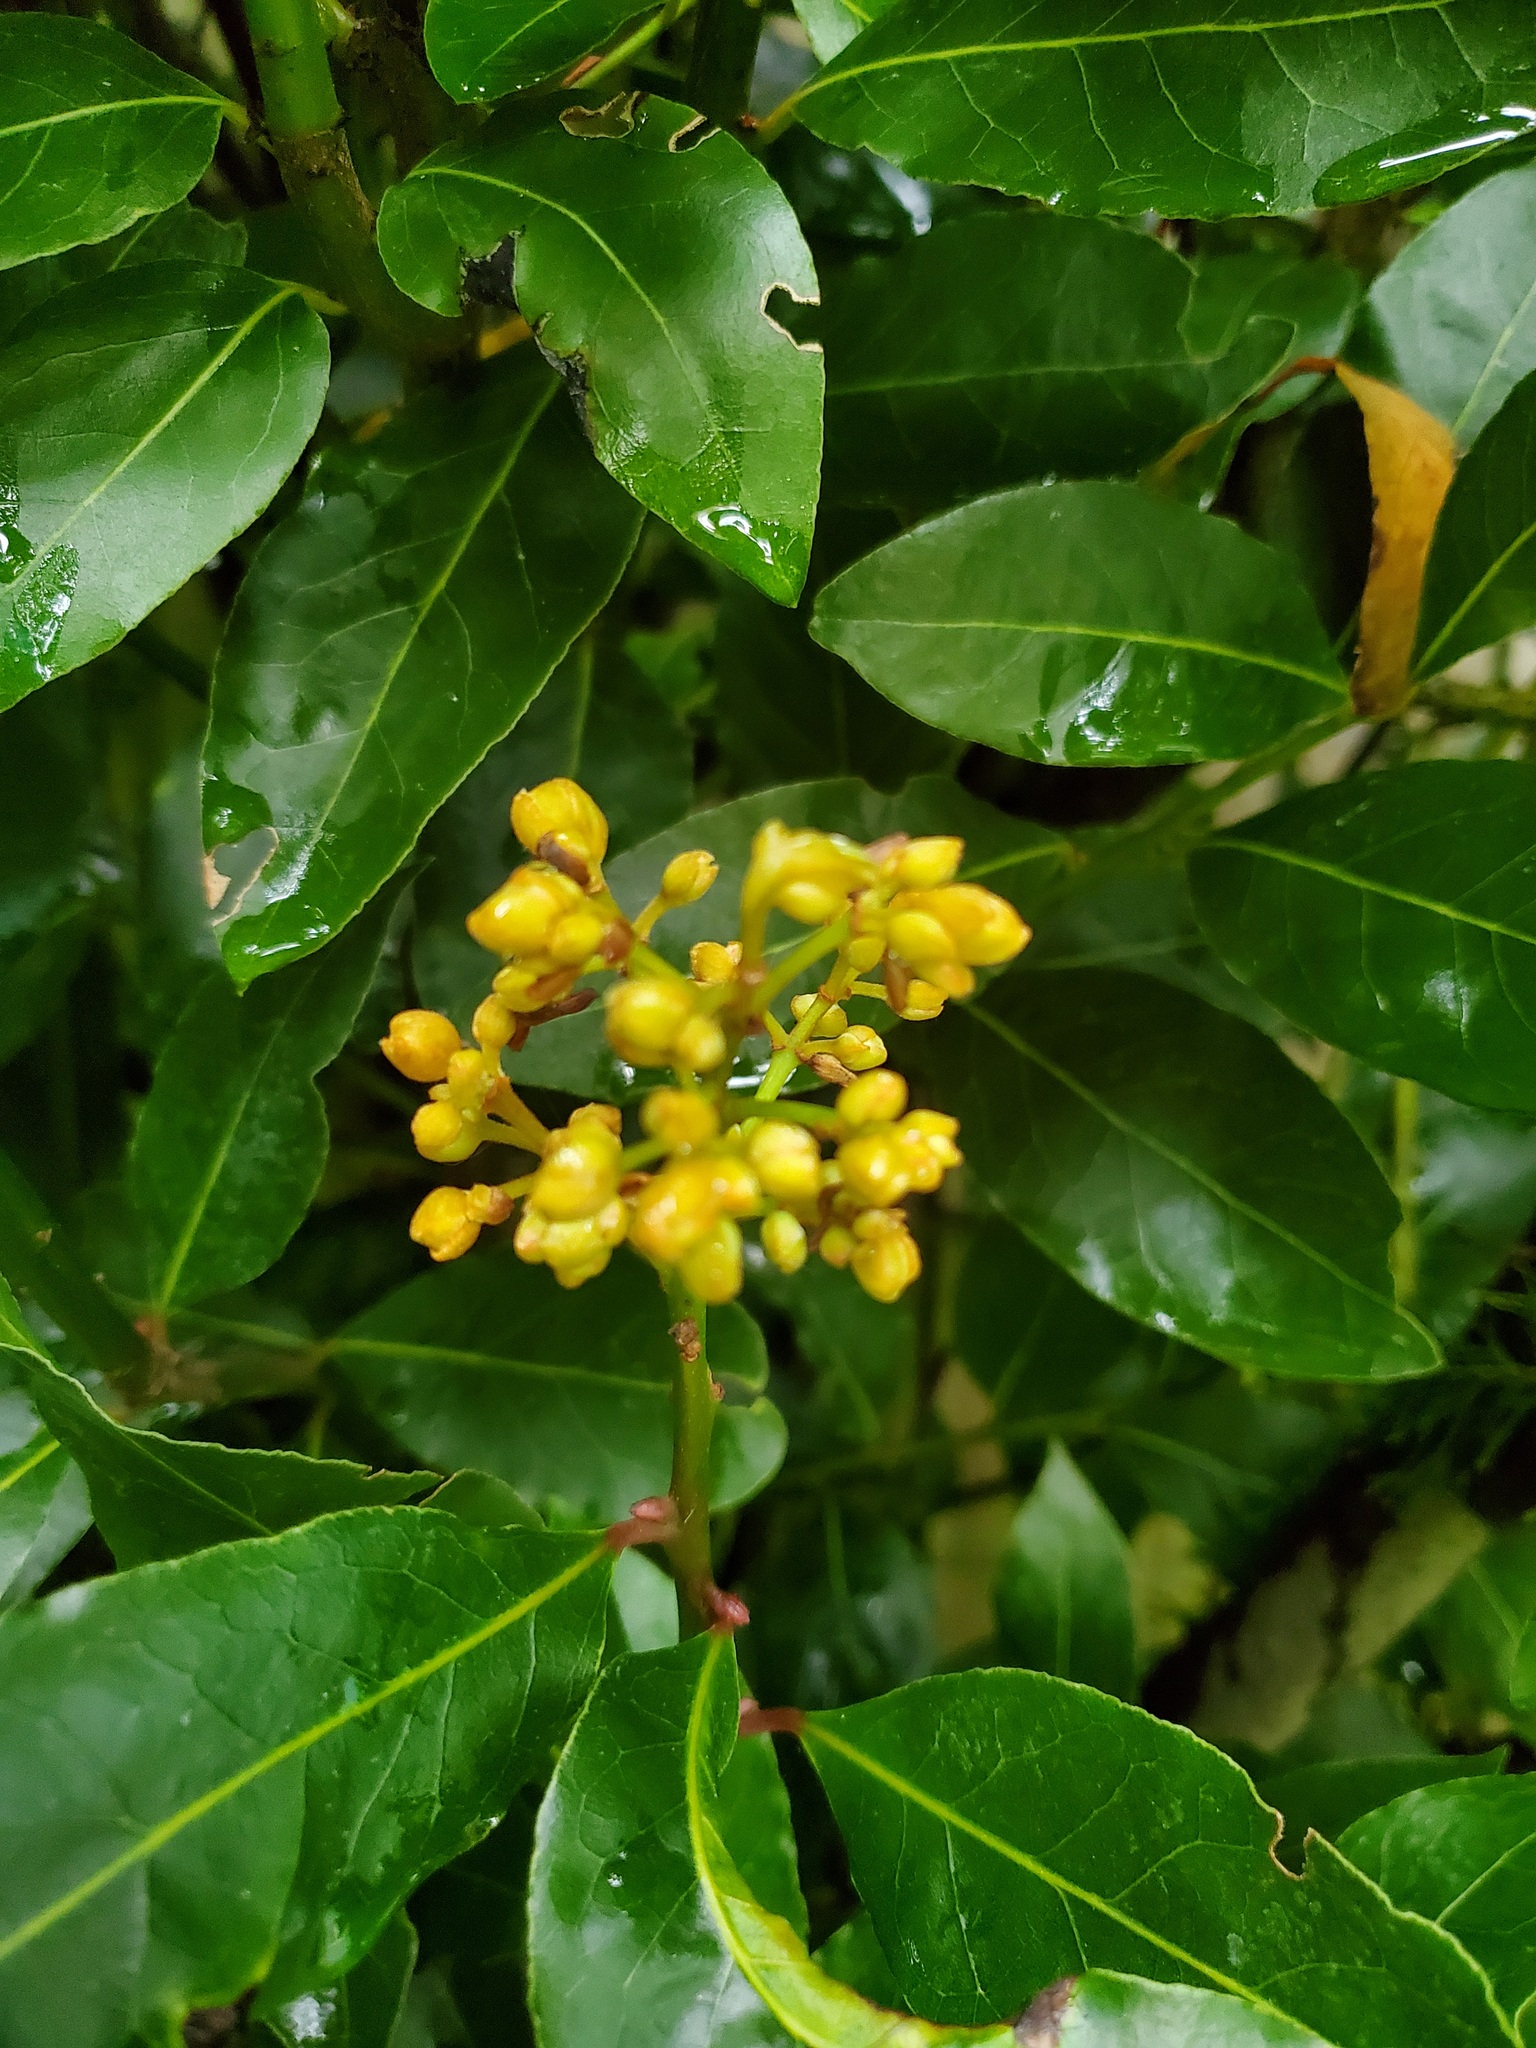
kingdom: Plantae
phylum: Tracheophyta
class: Magnoliopsida
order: Laurales
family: Lauraceae
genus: Laurus
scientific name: Laurus nobilis
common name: Bay
